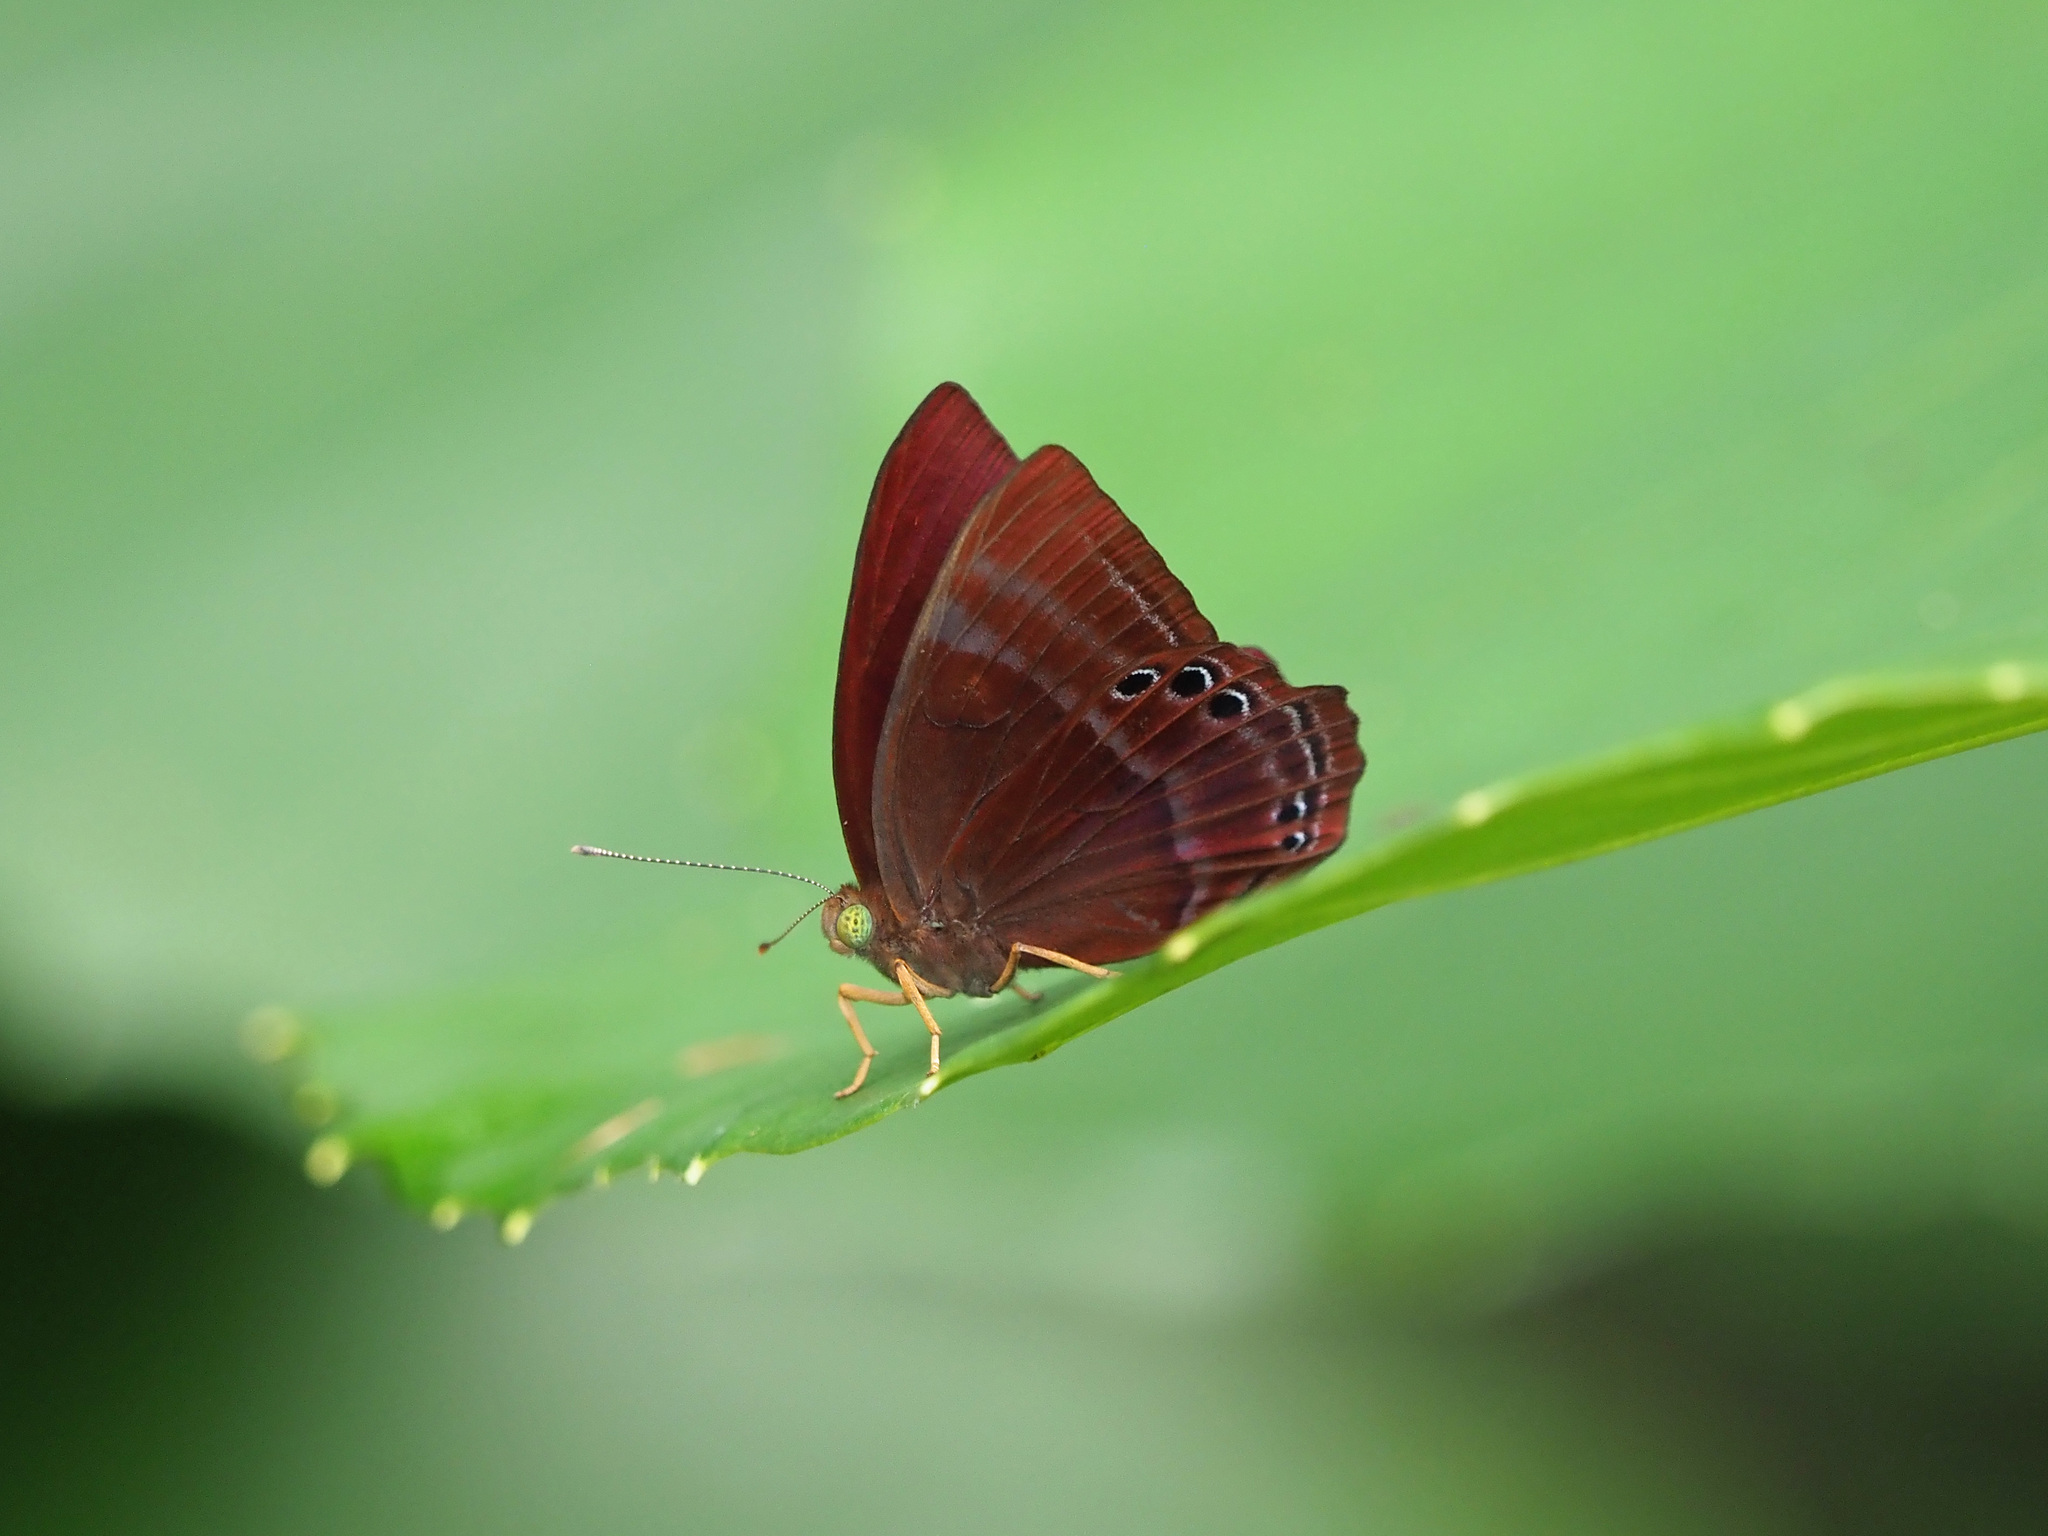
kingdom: Animalia
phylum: Arthropoda
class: Insecta
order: Lepidoptera
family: Lycaenidae
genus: Abisara
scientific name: Abisara saturata
